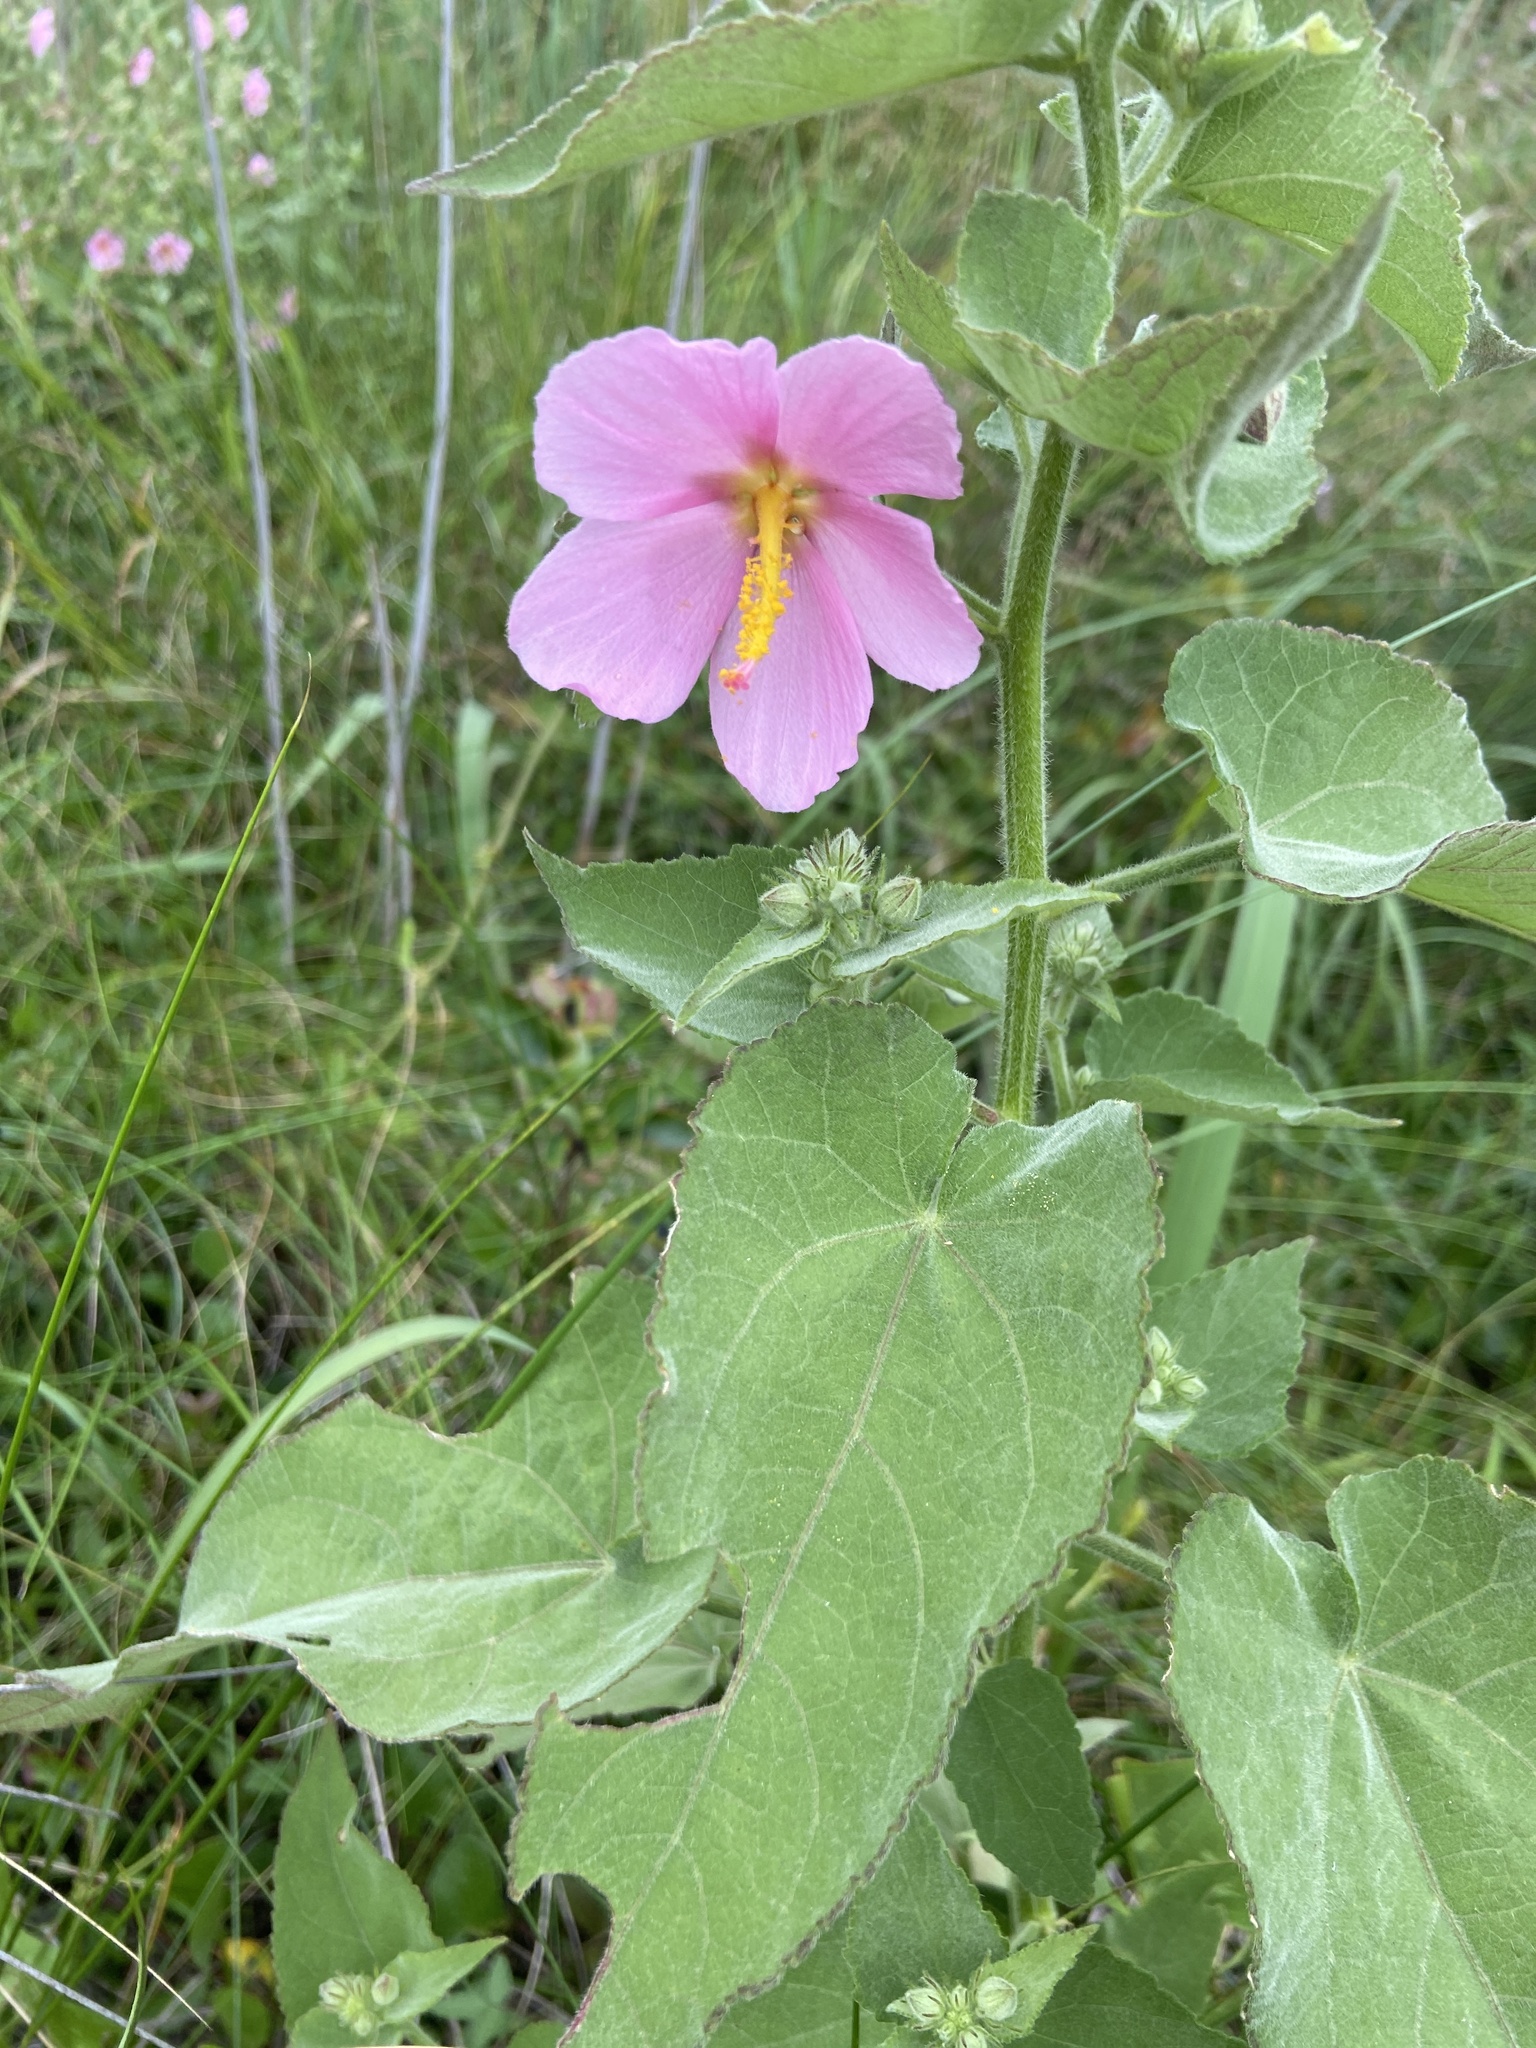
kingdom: Plantae
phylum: Tracheophyta
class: Magnoliopsida
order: Malvales
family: Malvaceae
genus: Kosteletzkya
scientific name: Kosteletzkya pentacarpos
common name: Virginia saltmarsh mallow
